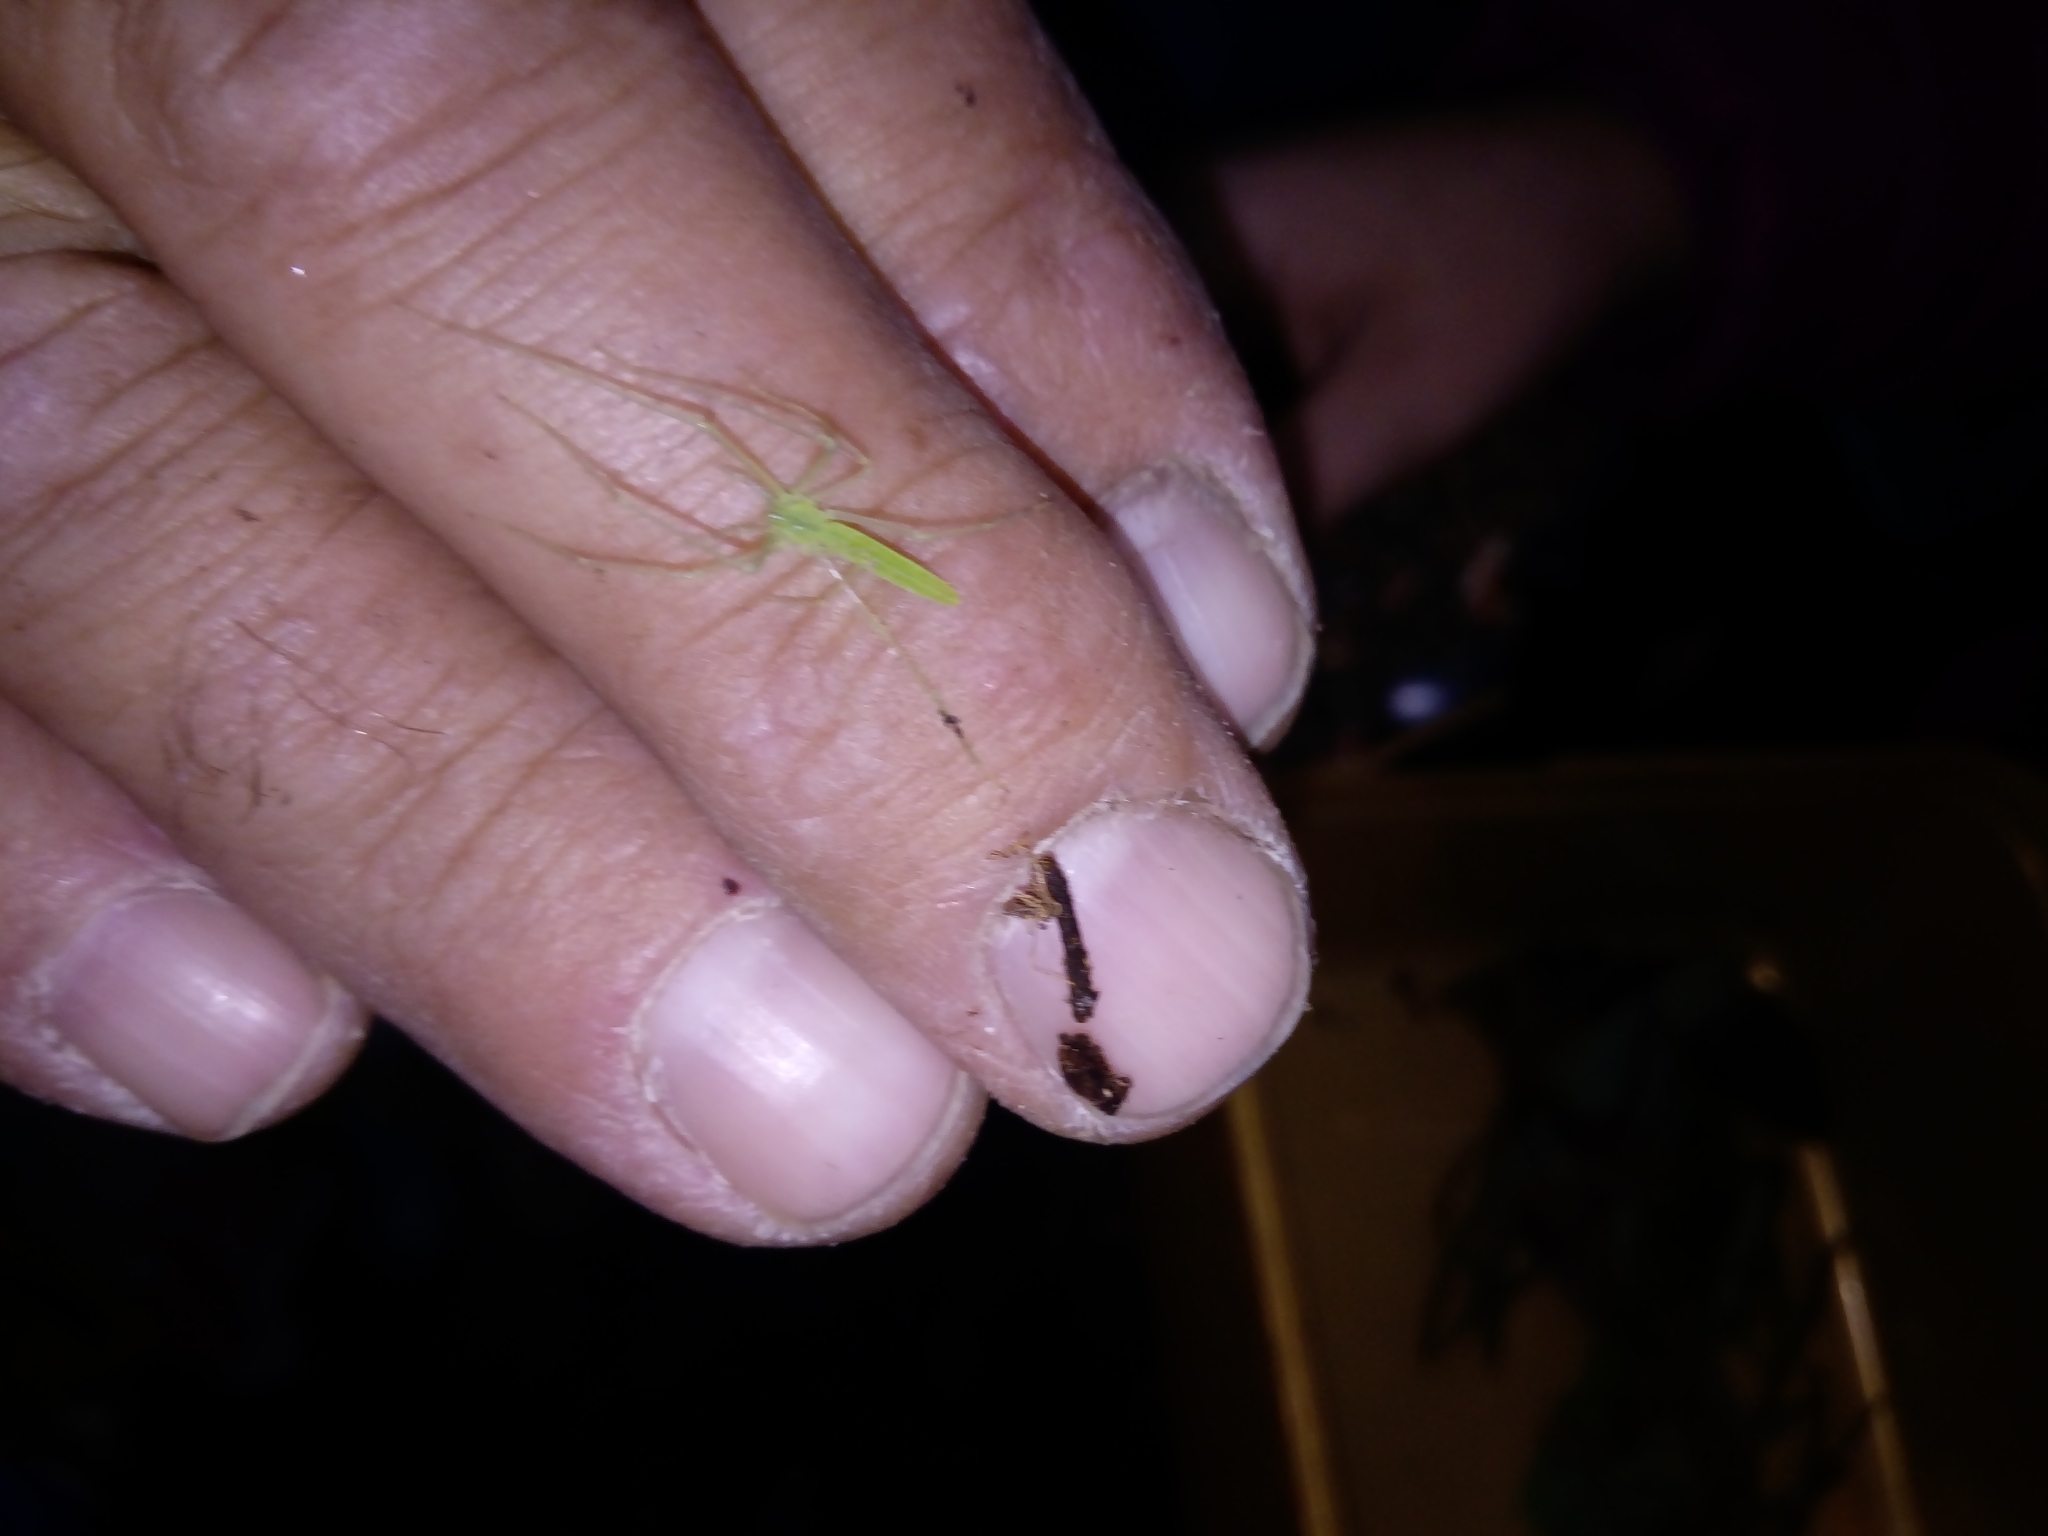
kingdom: Animalia
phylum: Arthropoda
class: Arachnida
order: Araneae
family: Desidae
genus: Ischalea
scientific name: Ischalea spinipes
